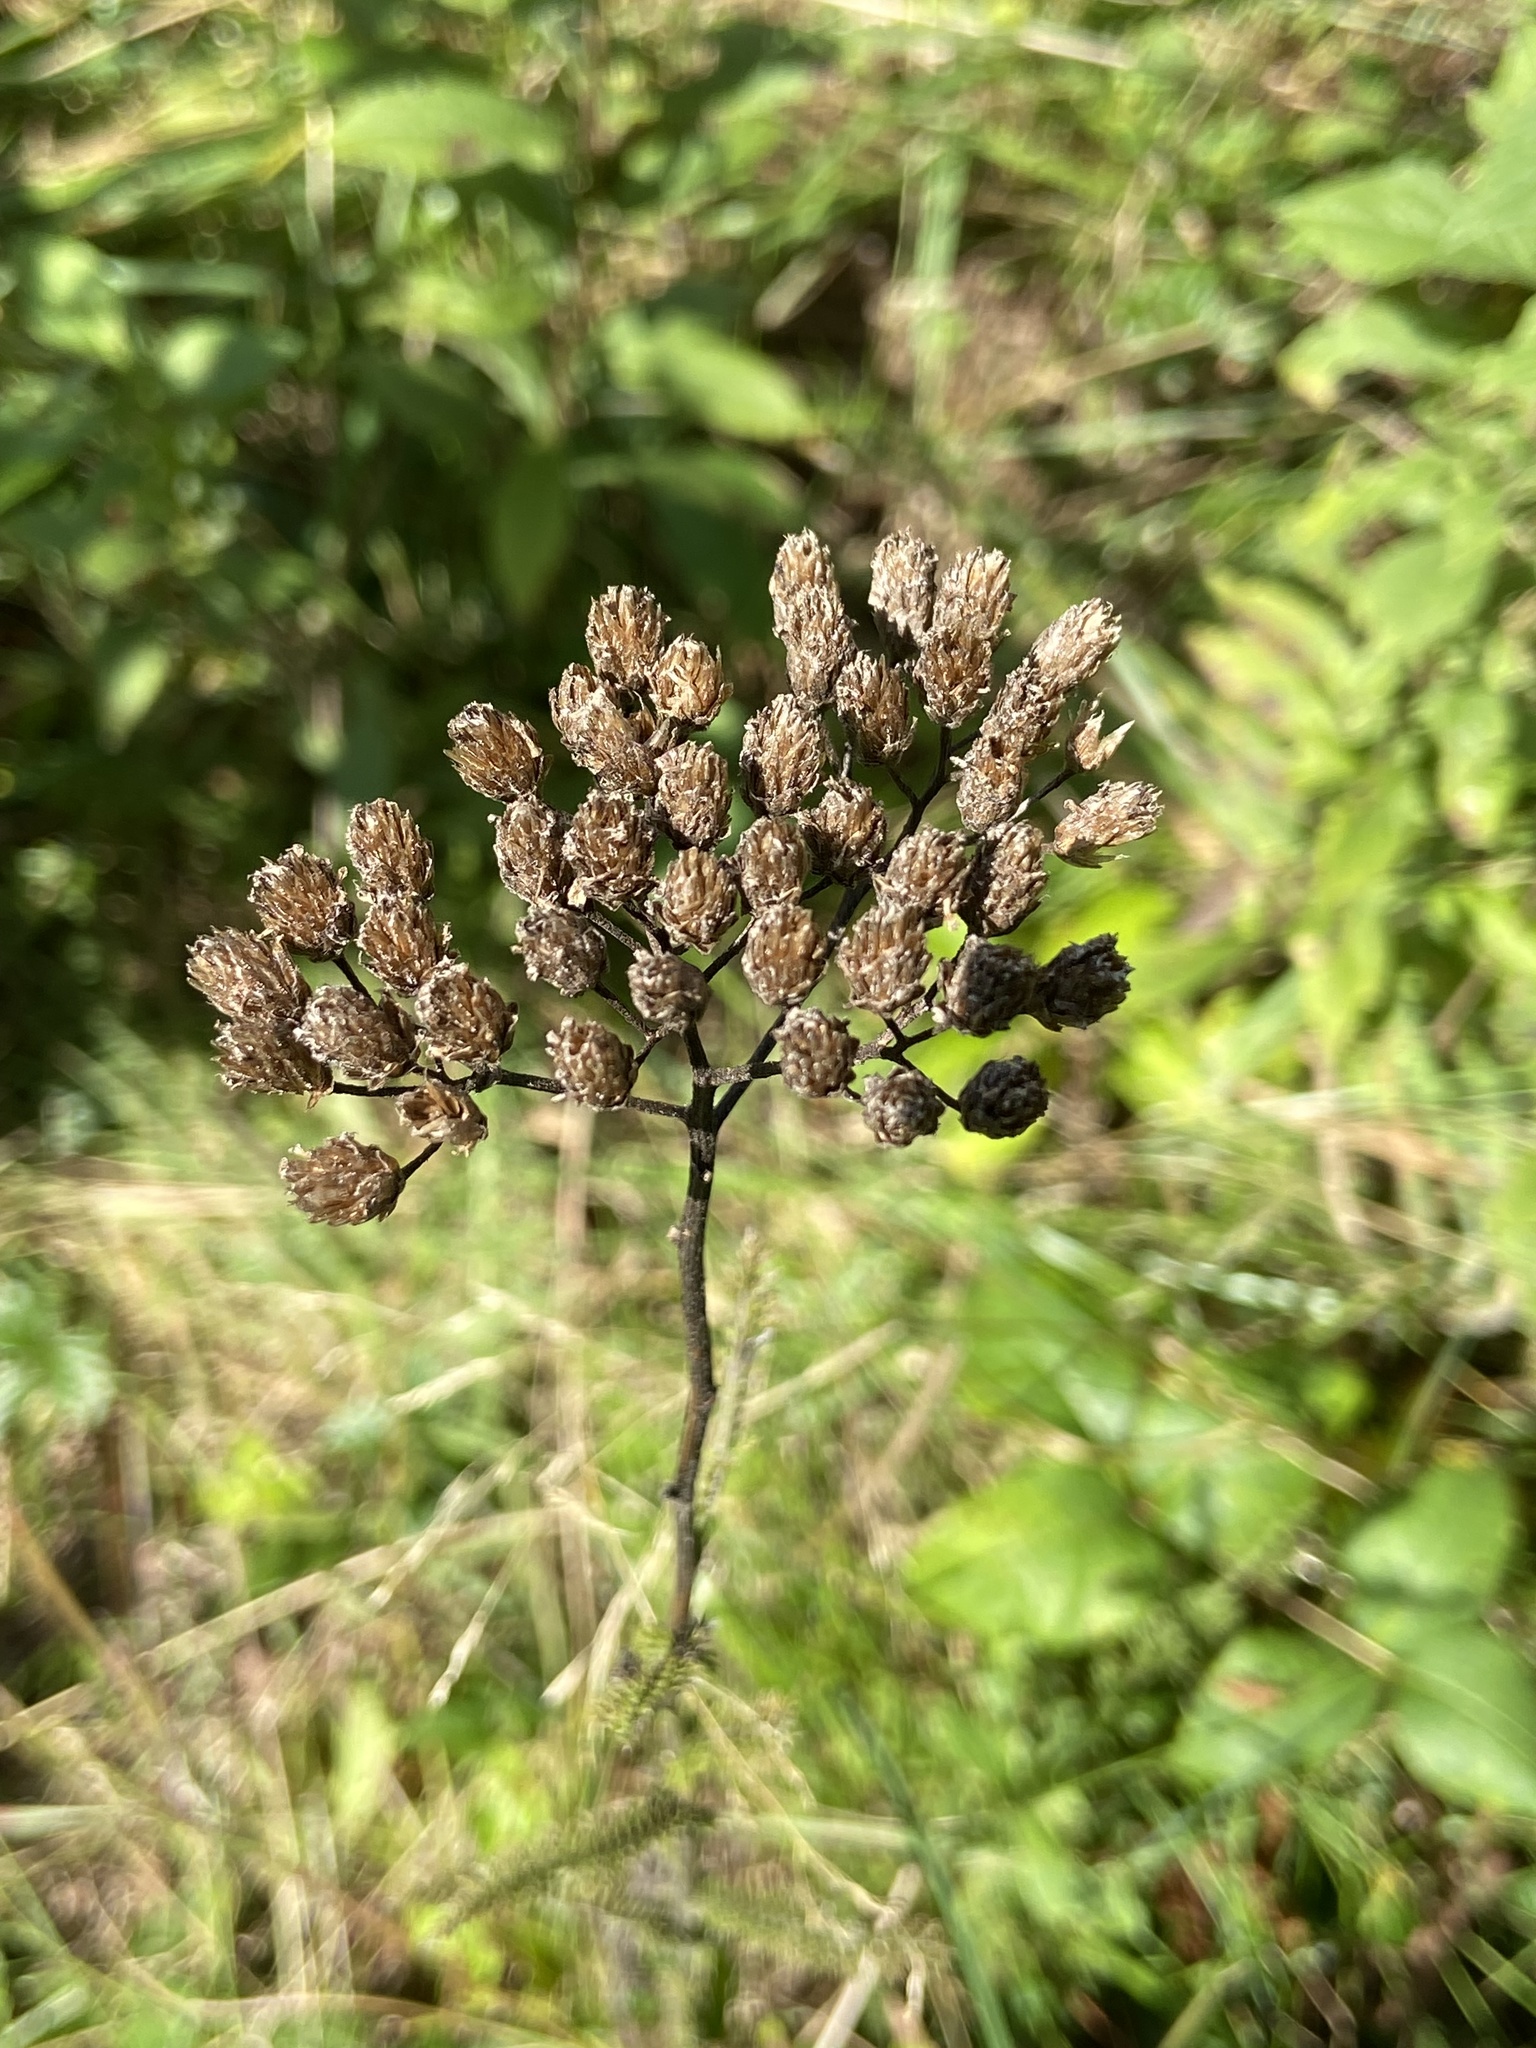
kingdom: Plantae
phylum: Tracheophyta
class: Magnoliopsida
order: Asterales
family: Asteraceae
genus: Achillea
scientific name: Achillea millefolium
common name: Yarrow
